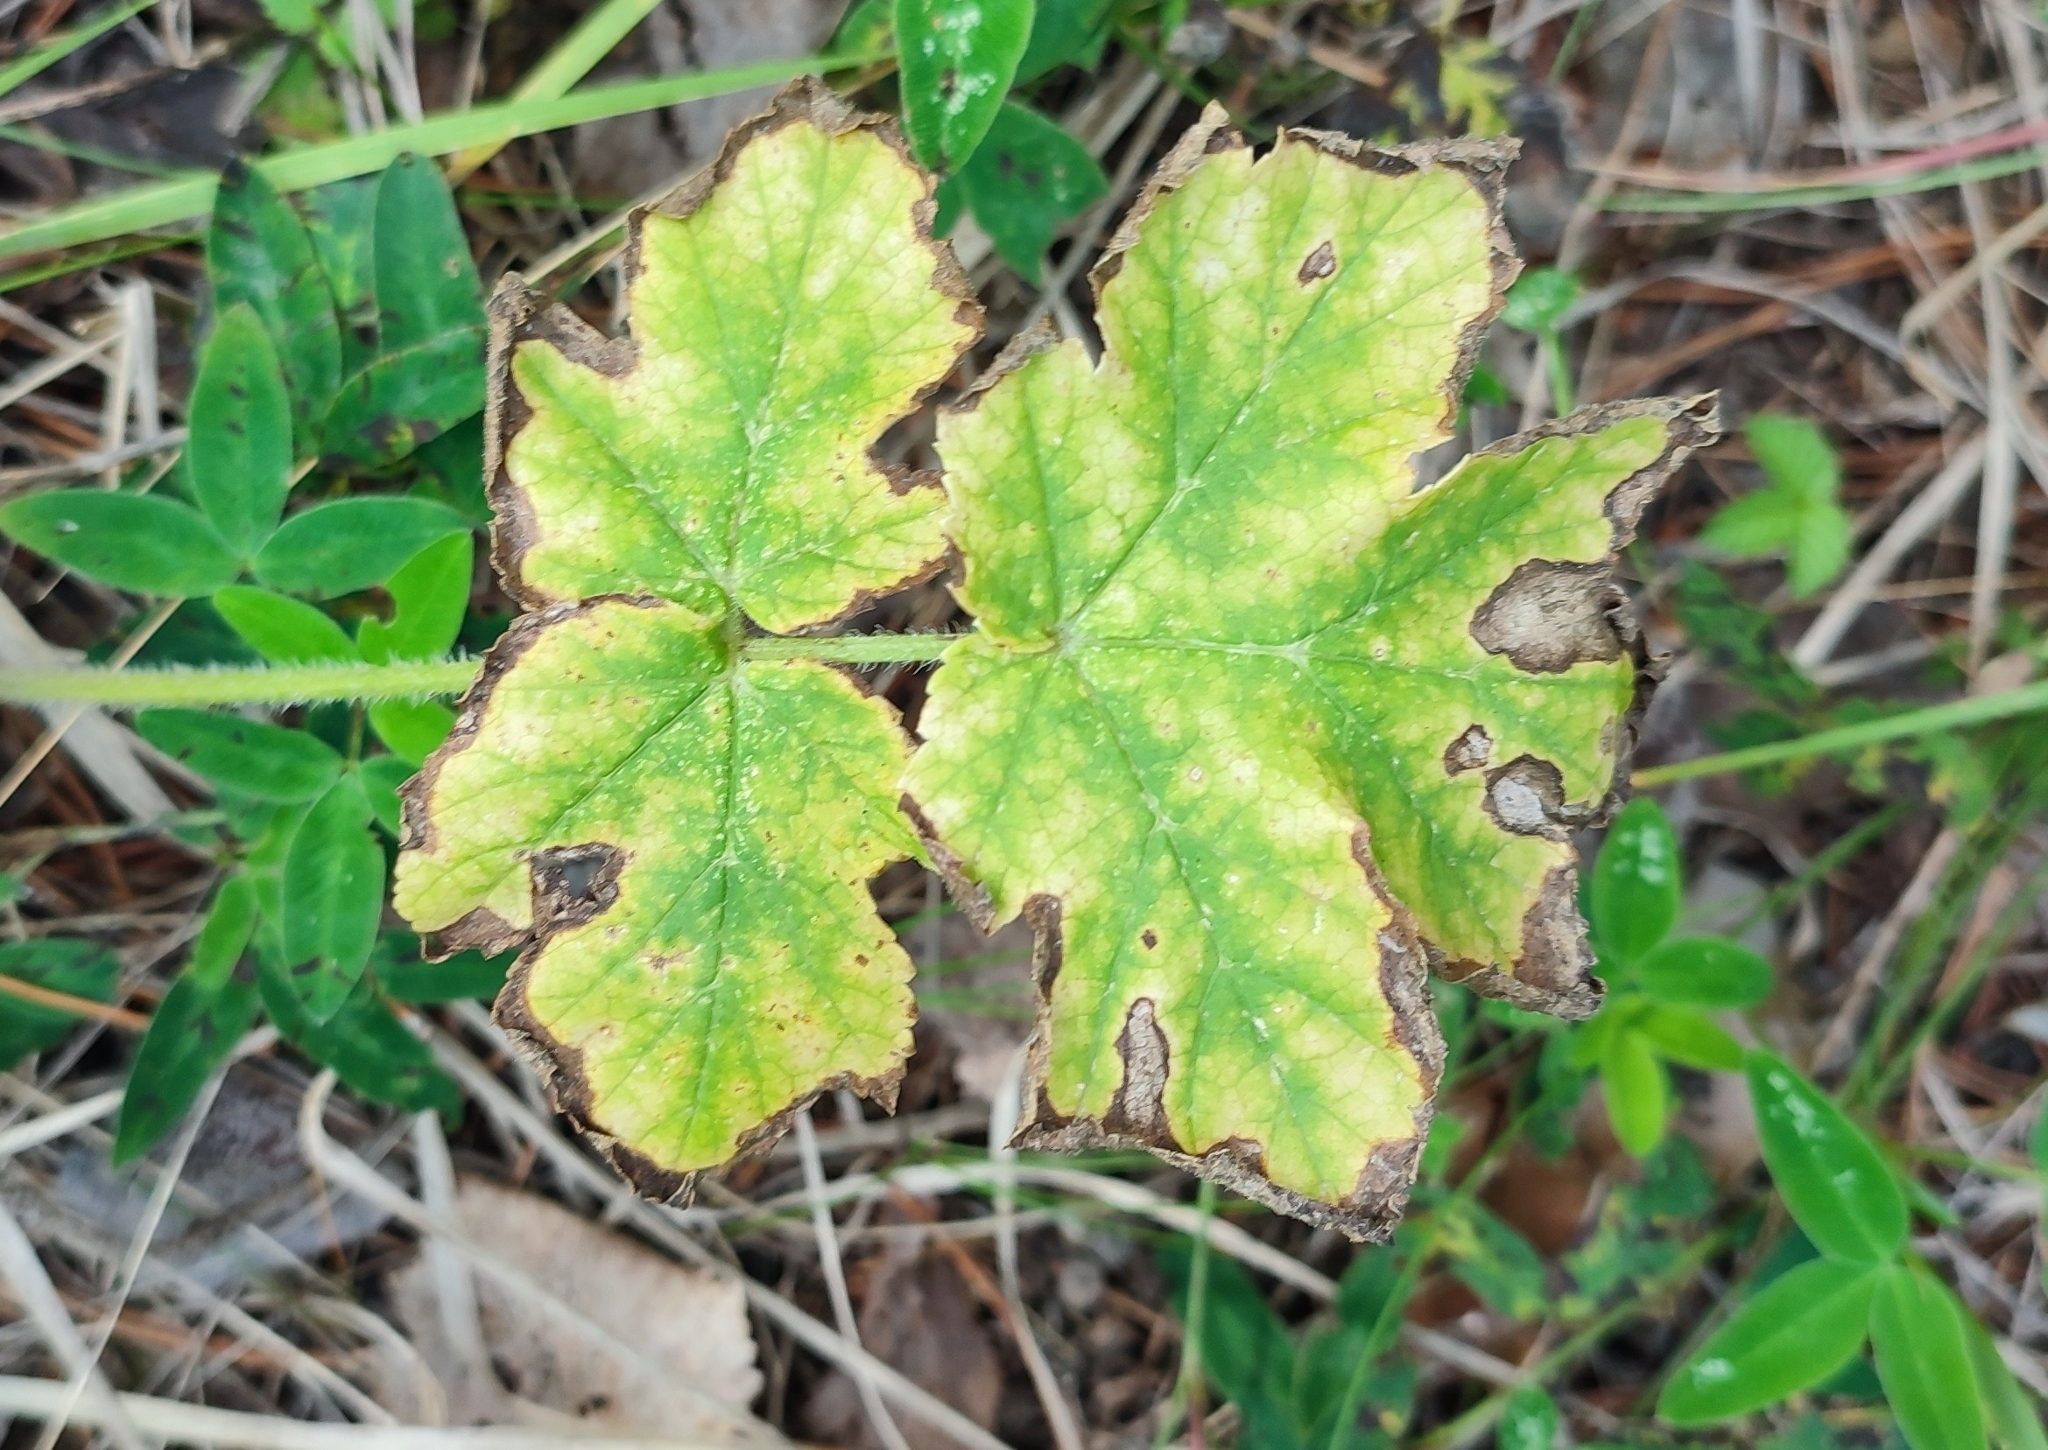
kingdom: Plantae
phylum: Tracheophyta
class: Magnoliopsida
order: Apiales
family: Apiaceae
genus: Heracleum
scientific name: Heracleum sphondylium
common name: Hogweed
